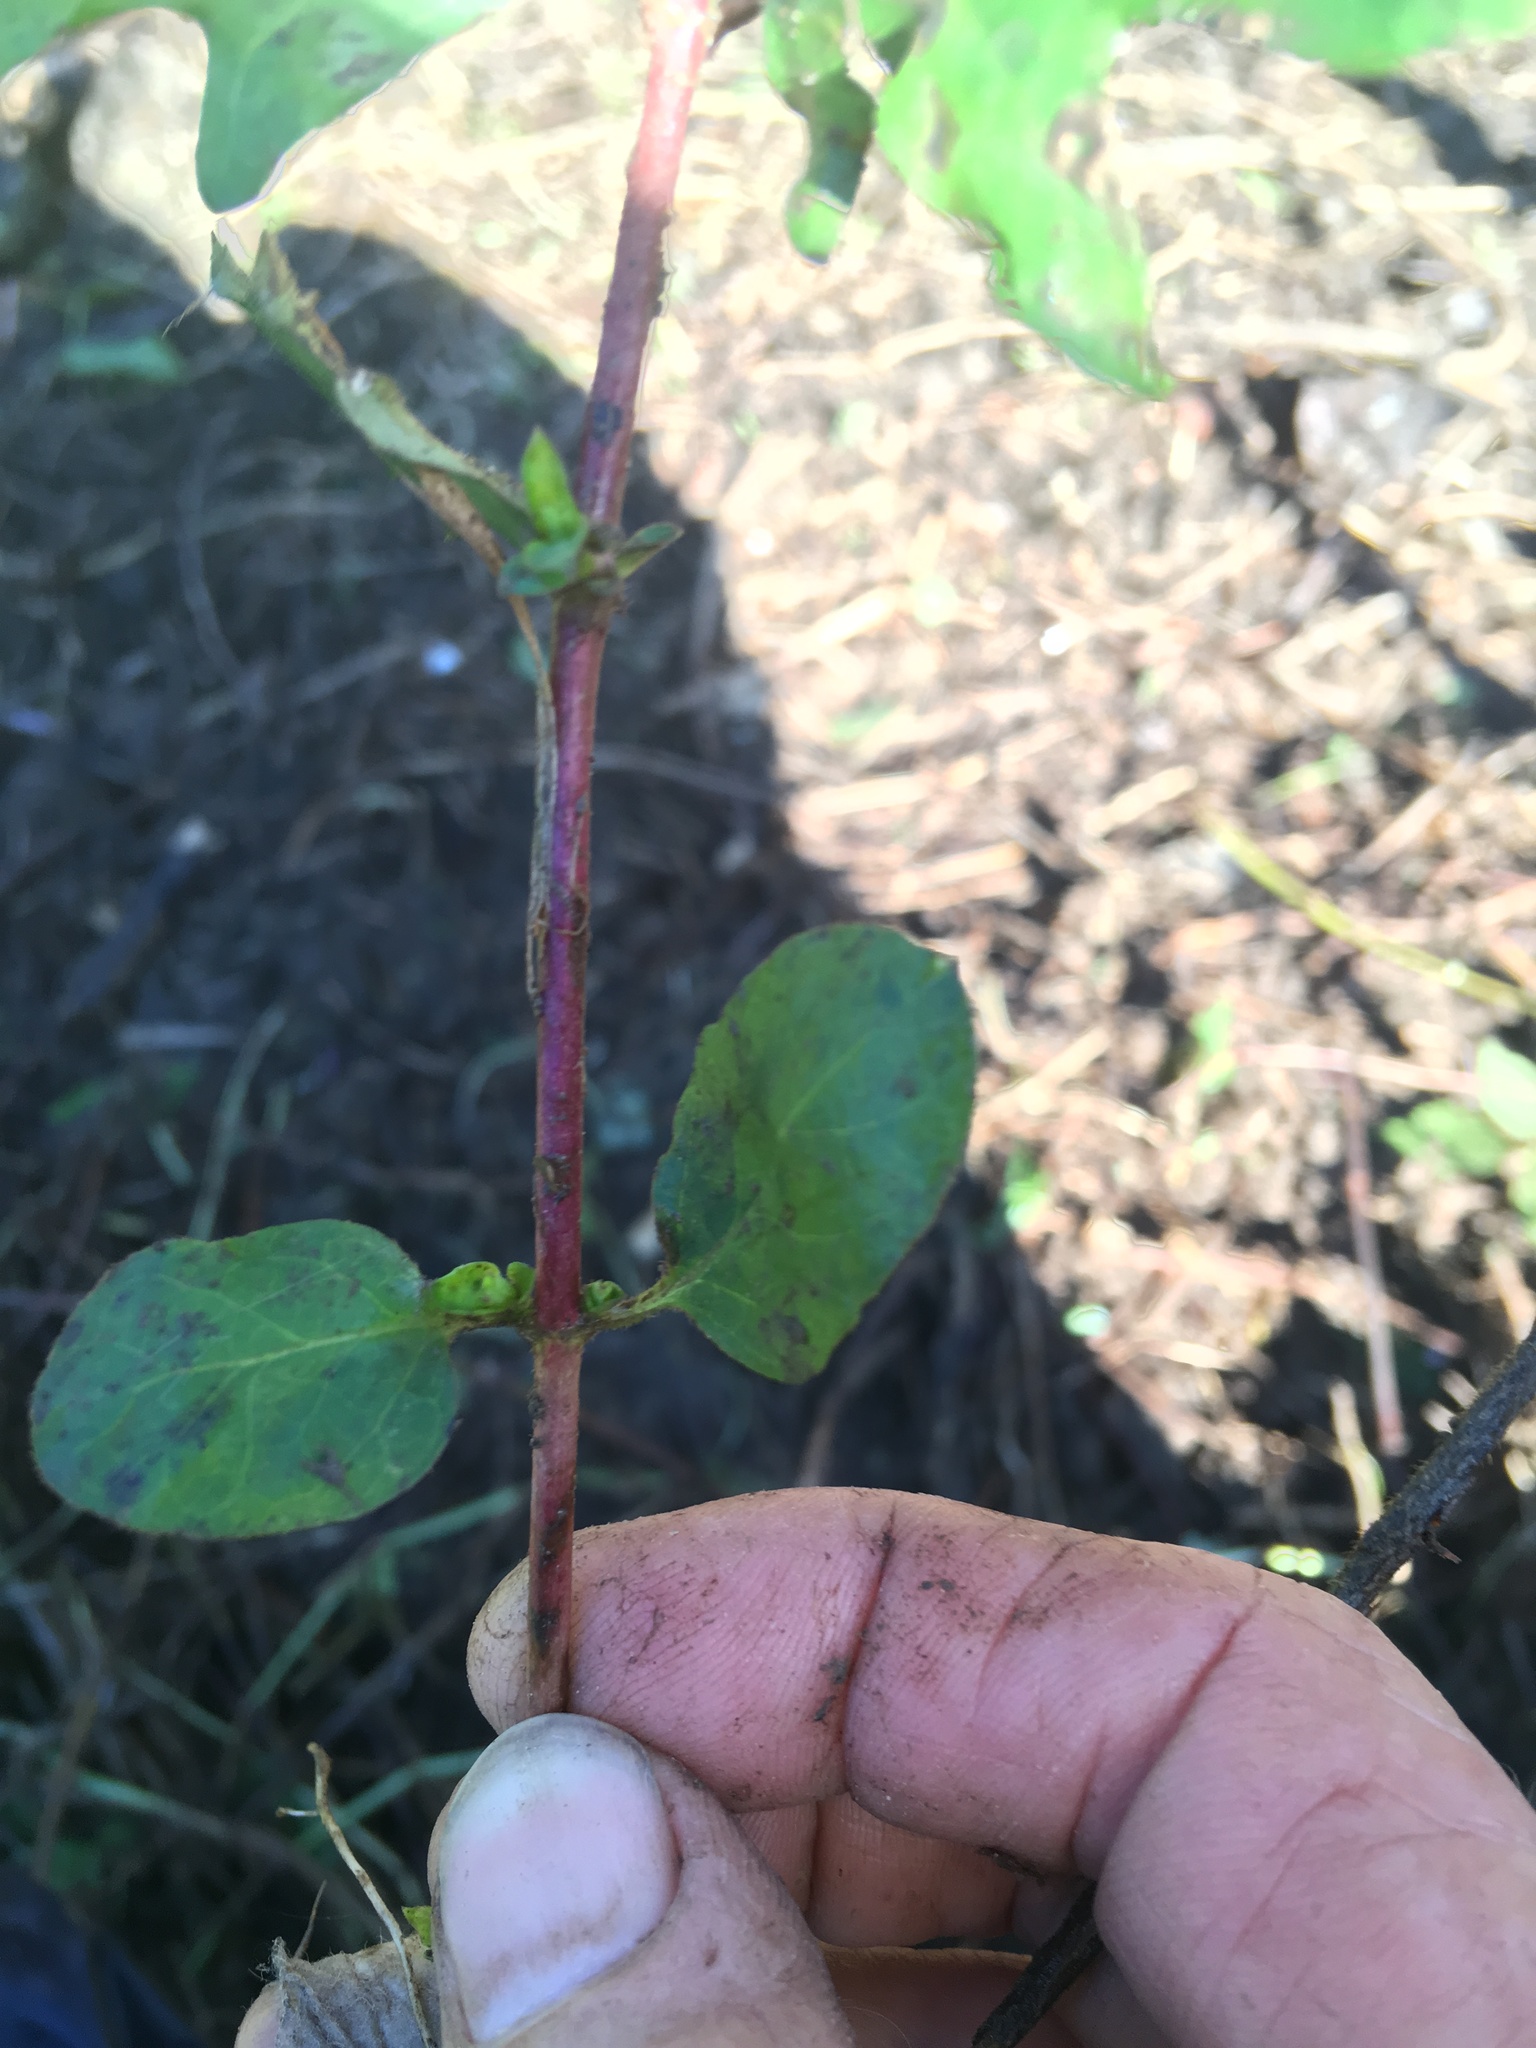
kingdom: Plantae
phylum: Tracheophyta
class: Magnoliopsida
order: Dipsacales
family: Caprifoliaceae
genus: Lonicera
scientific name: Lonicera japonica
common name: Japanese honeysuckle
